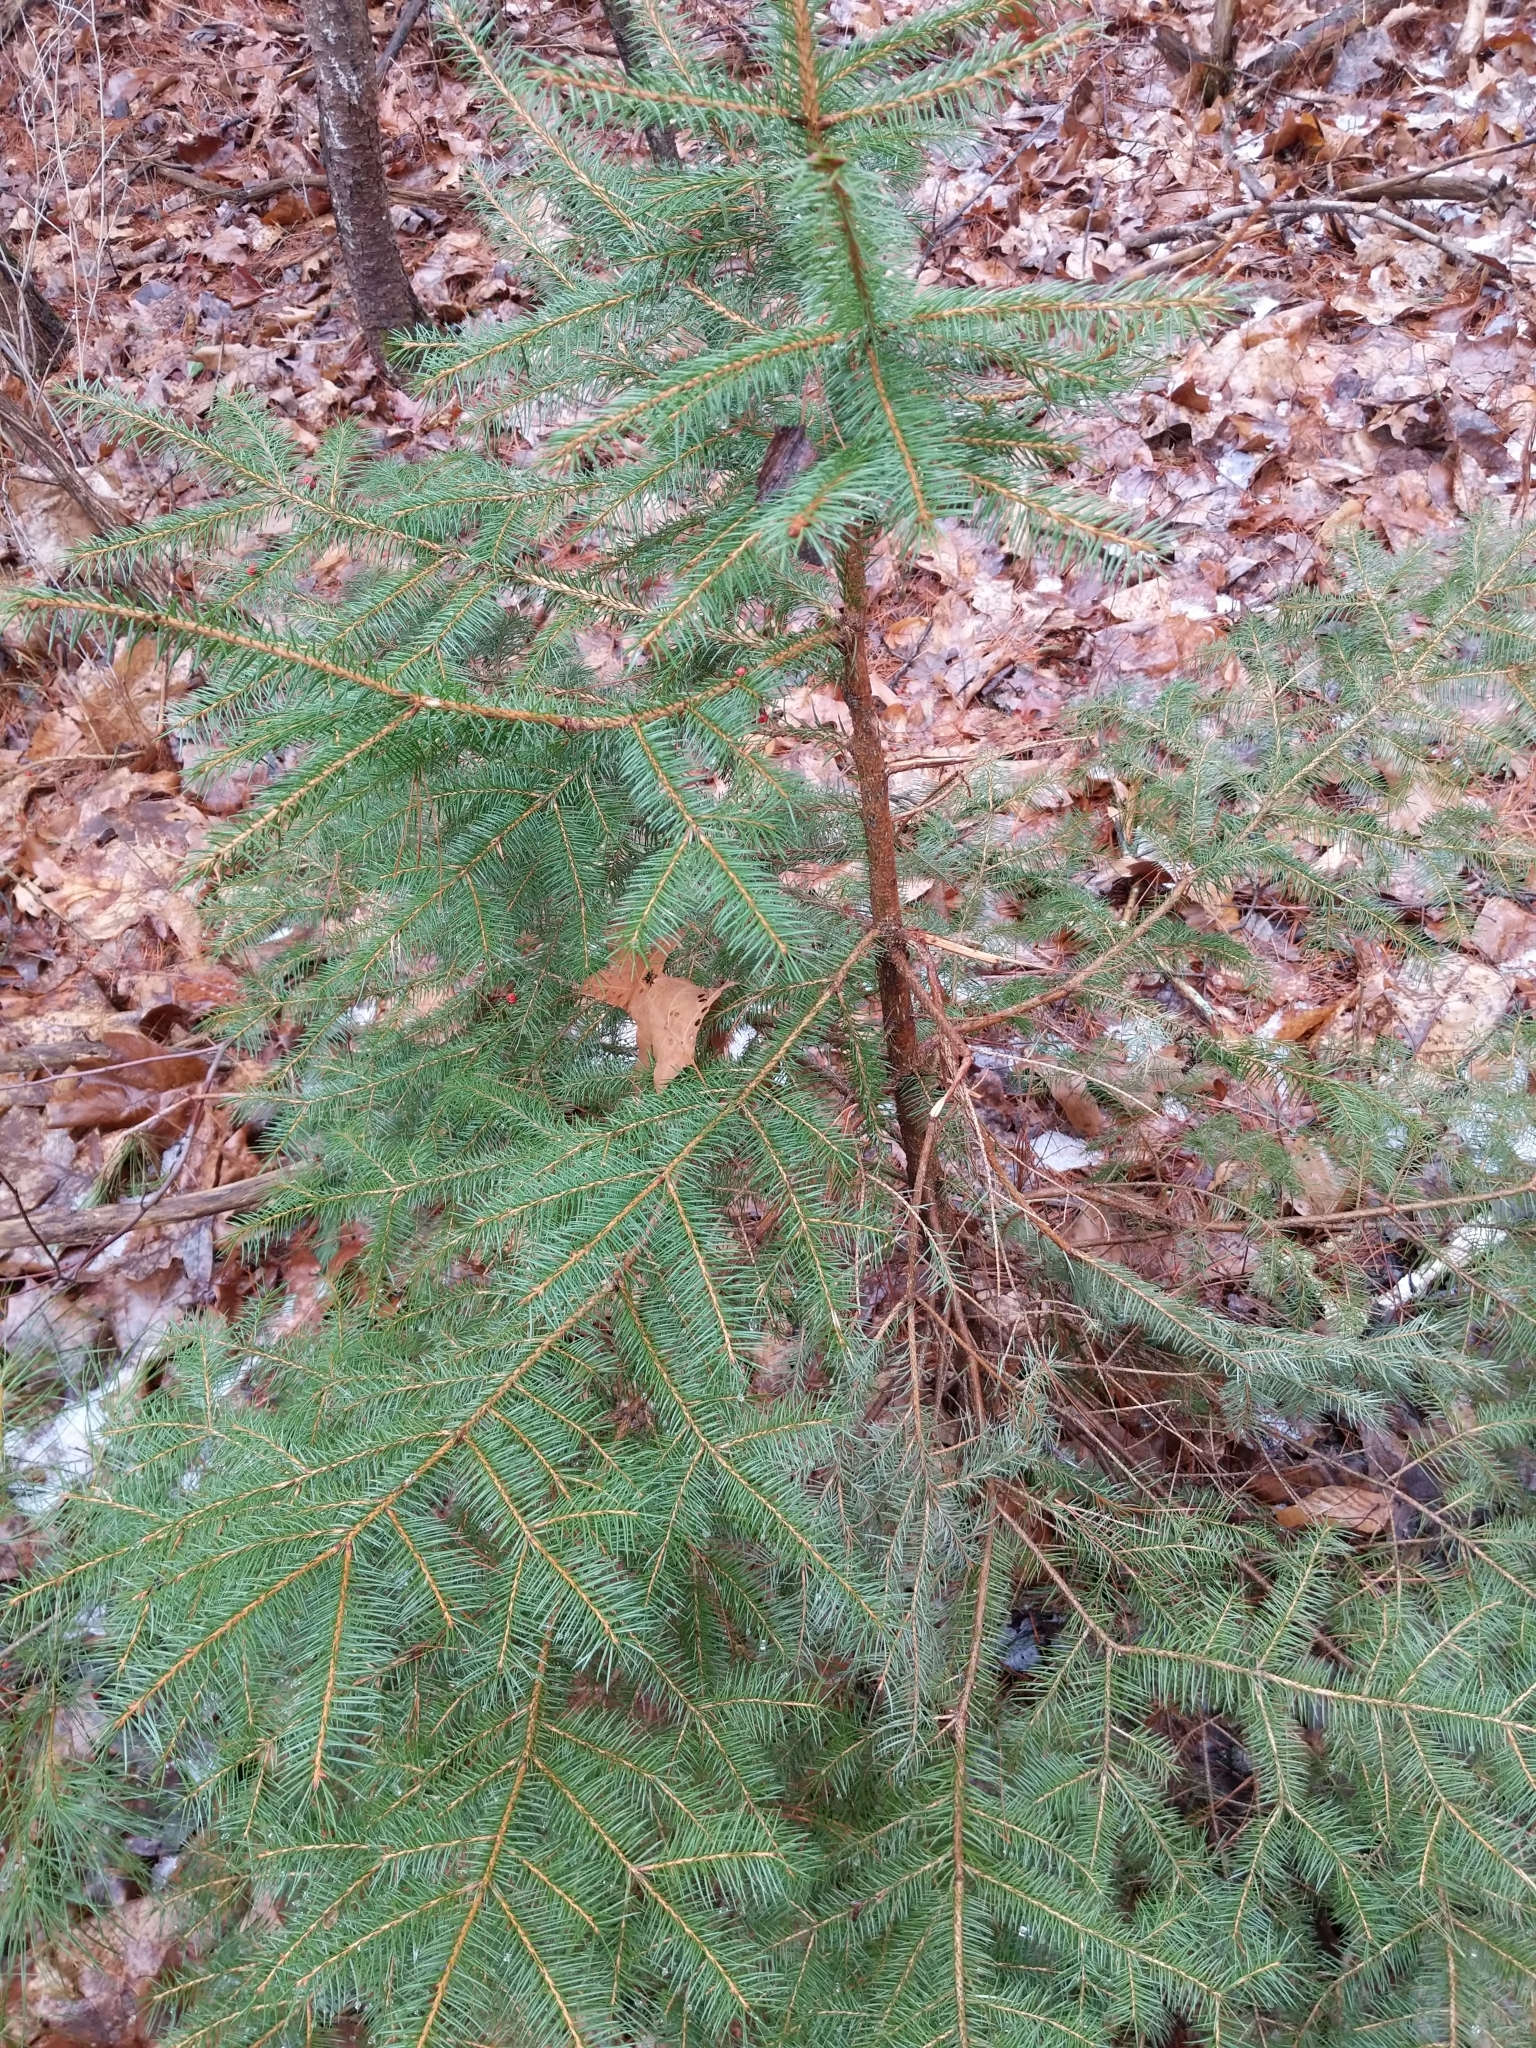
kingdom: Plantae
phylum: Tracheophyta
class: Pinopsida
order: Pinales
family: Pinaceae
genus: Picea
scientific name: Picea abies
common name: Norway spruce
